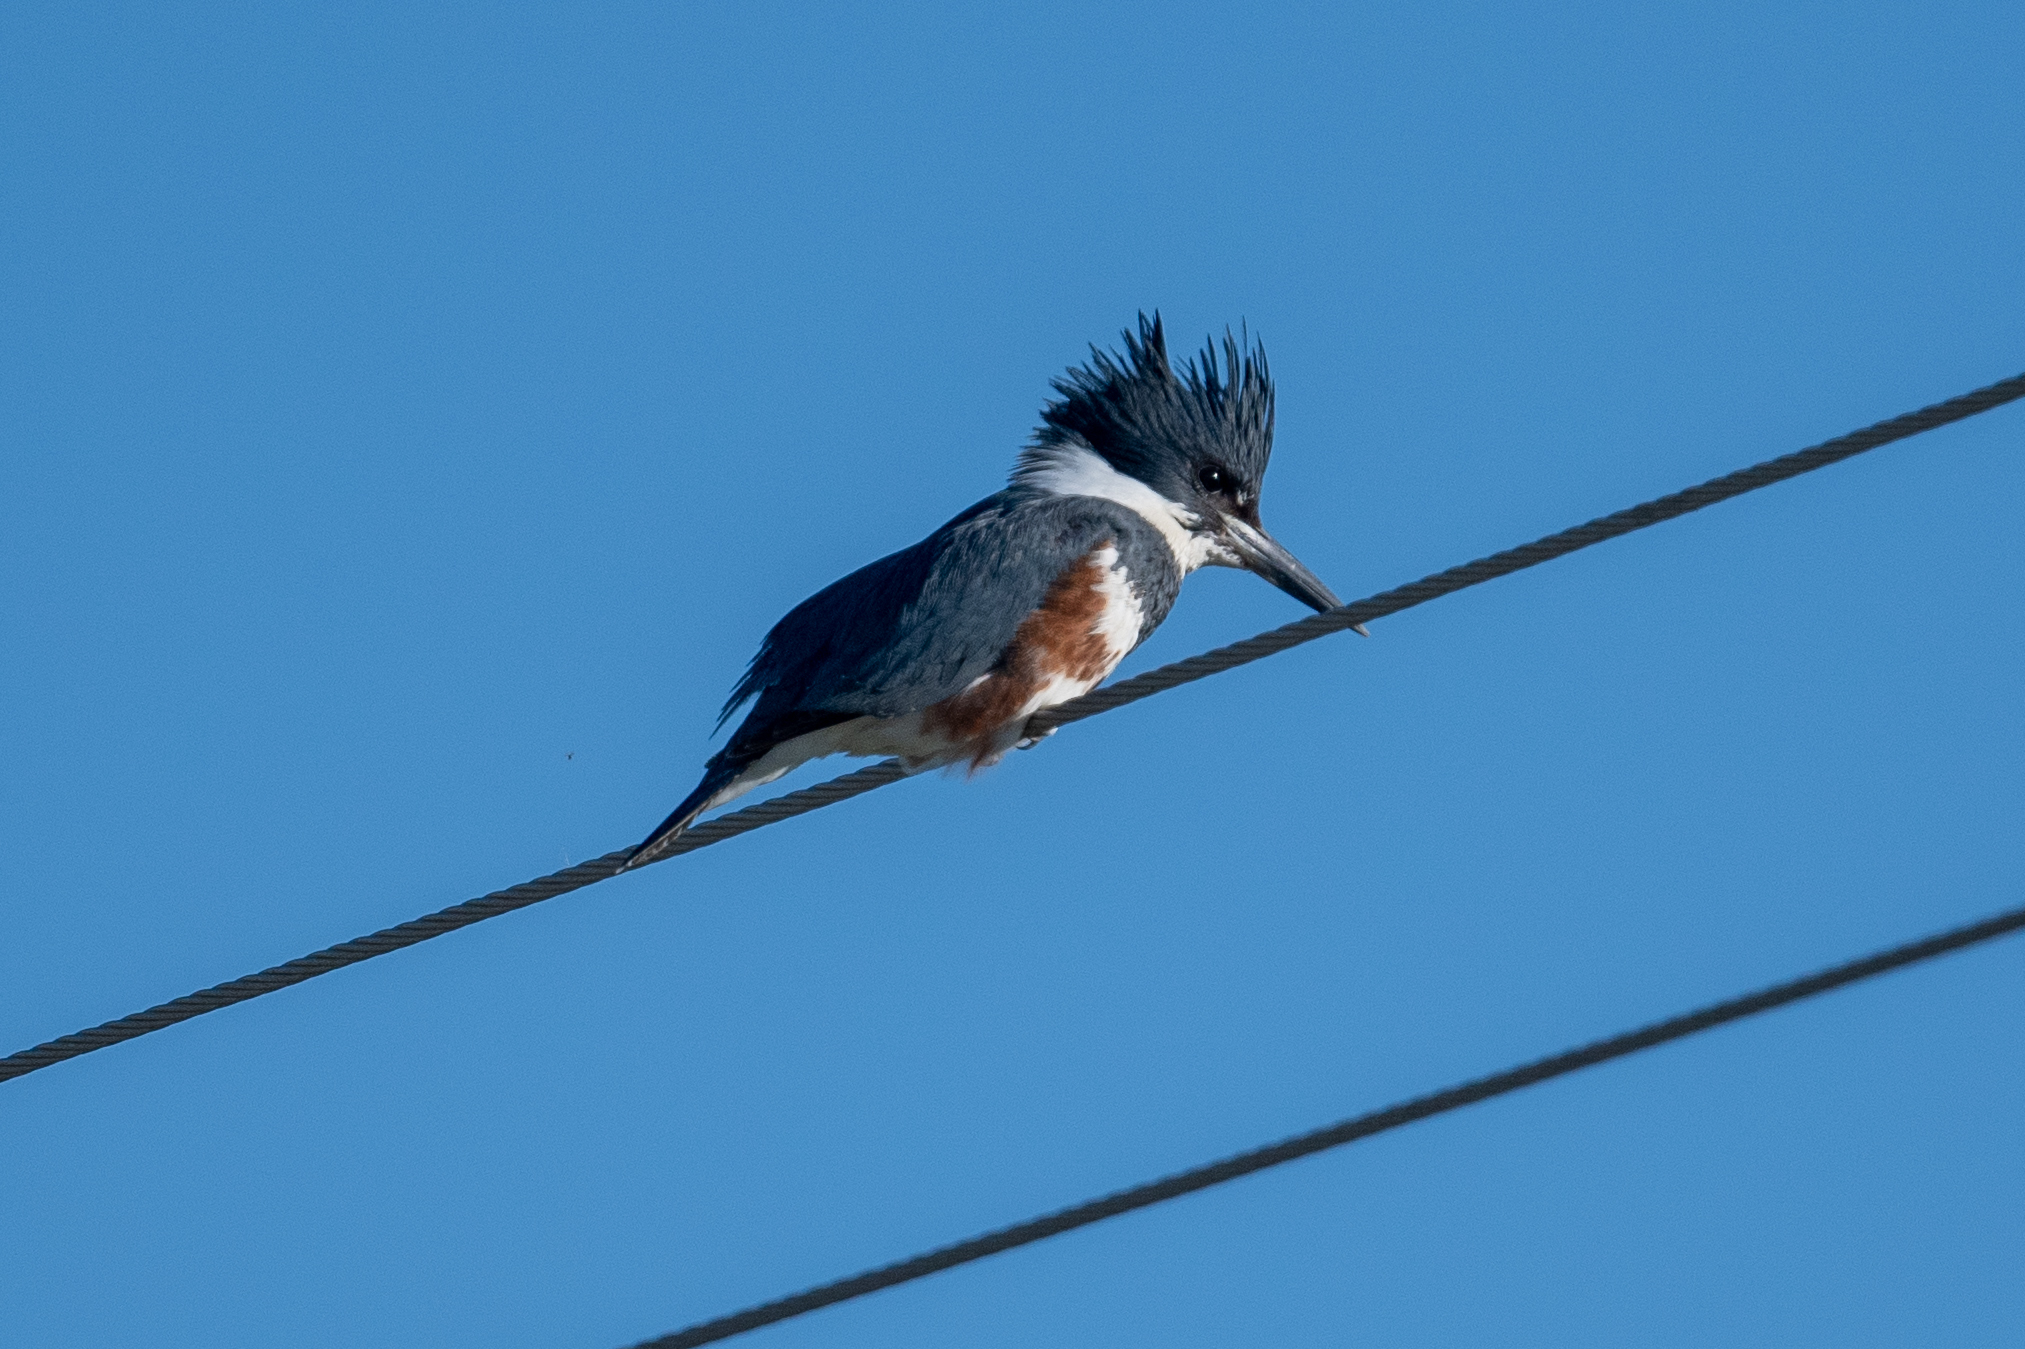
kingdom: Animalia
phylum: Chordata
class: Aves
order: Coraciiformes
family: Alcedinidae
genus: Megaceryle
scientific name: Megaceryle alcyon
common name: Belted kingfisher
